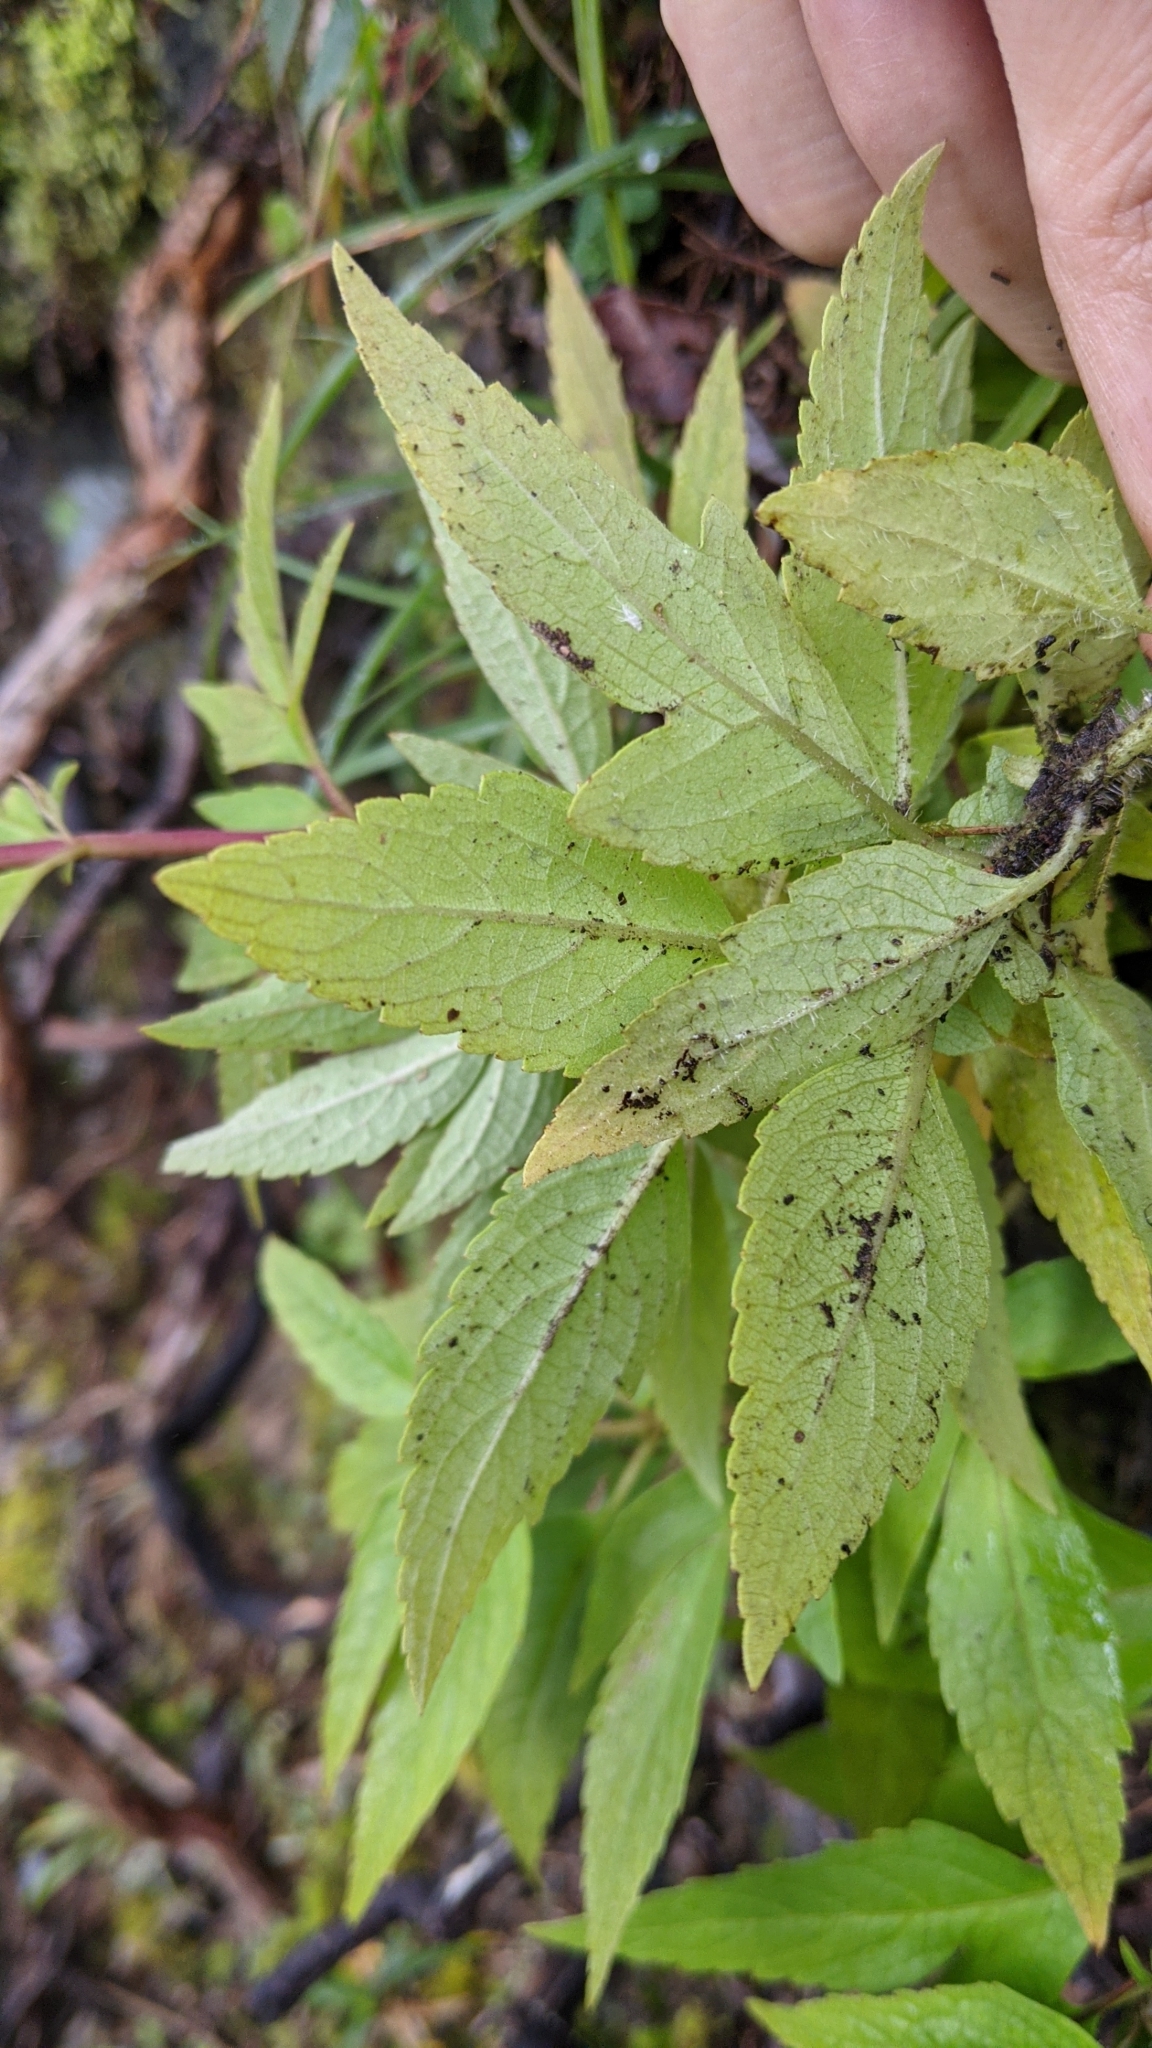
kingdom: Plantae
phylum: Tracheophyta
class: Magnoliopsida
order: Asterales
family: Asteraceae
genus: Eupatorium
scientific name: Eupatorium formosanum
